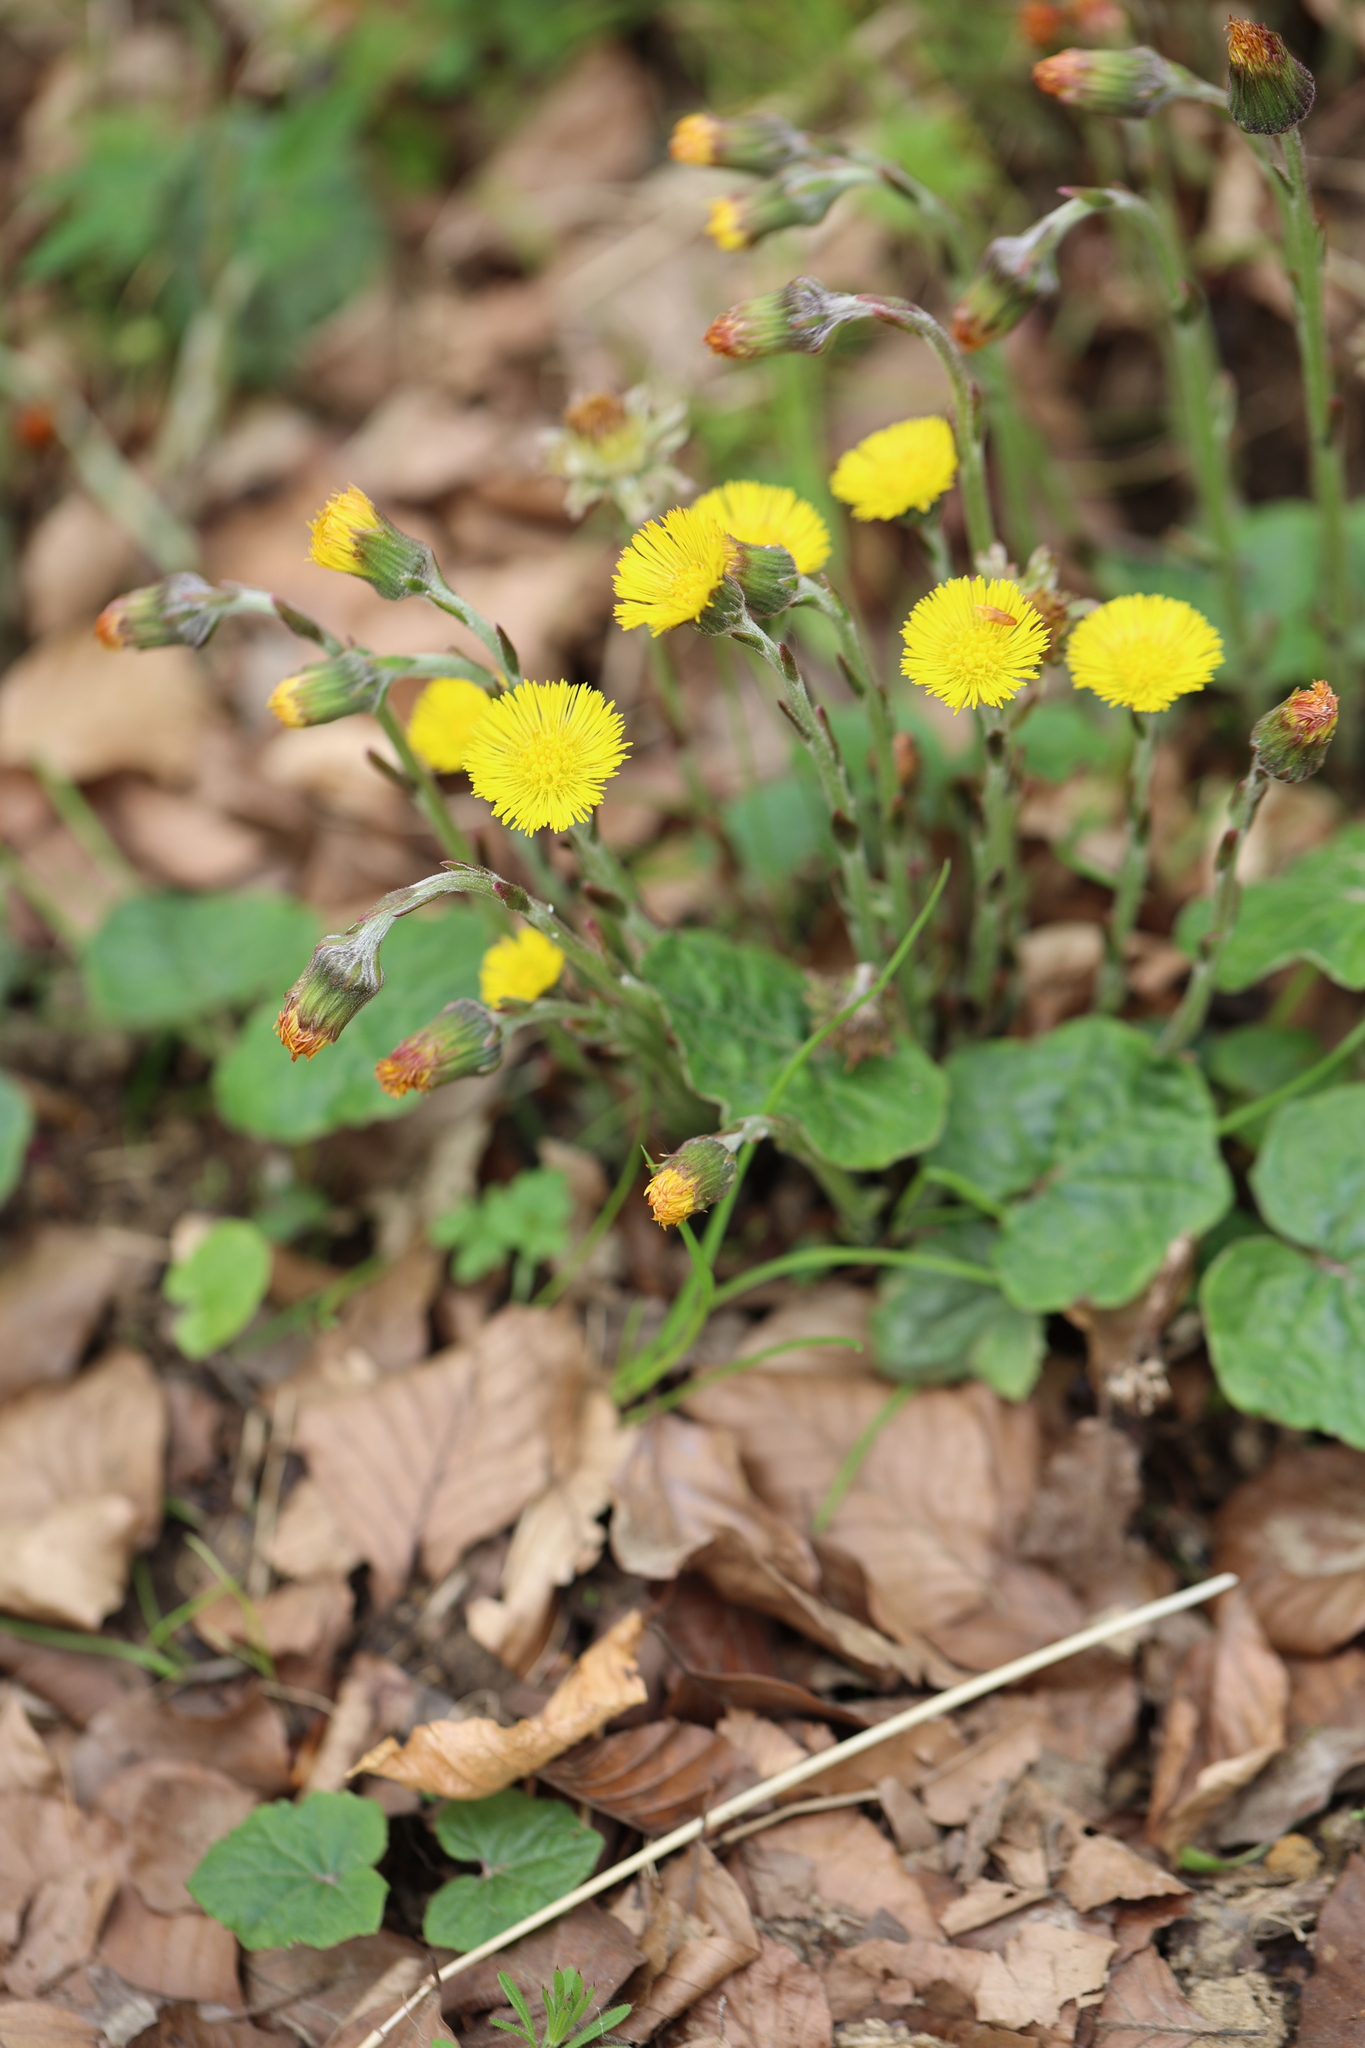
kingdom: Plantae
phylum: Tracheophyta
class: Magnoliopsida
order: Asterales
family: Asteraceae
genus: Tussilago
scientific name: Tussilago farfara
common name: Coltsfoot
